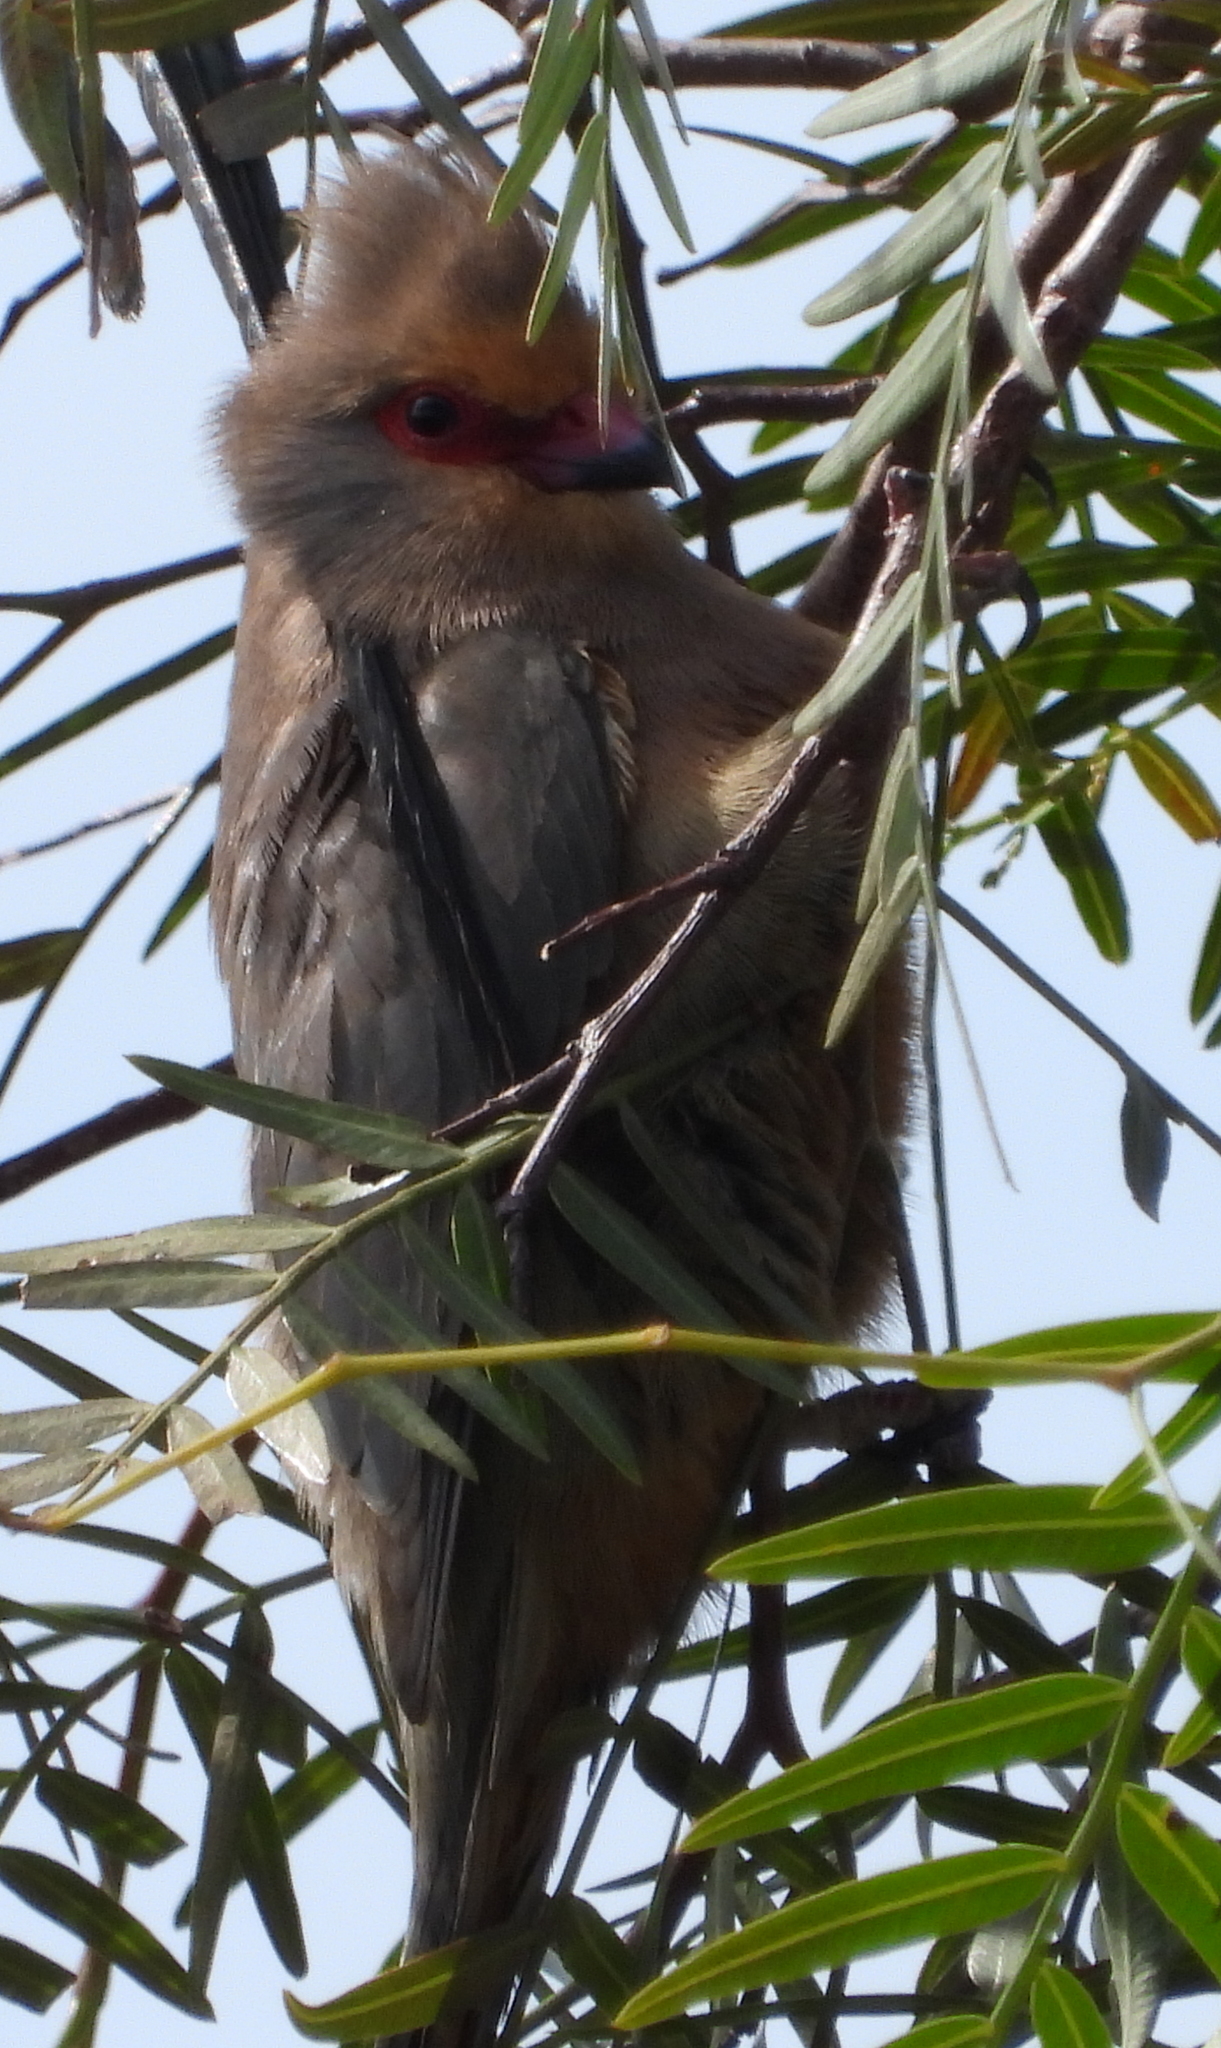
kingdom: Animalia
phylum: Chordata
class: Aves
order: Coliiformes
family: Coliidae
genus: Urocolius
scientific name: Urocolius indicus
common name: Red-faced mousebird
